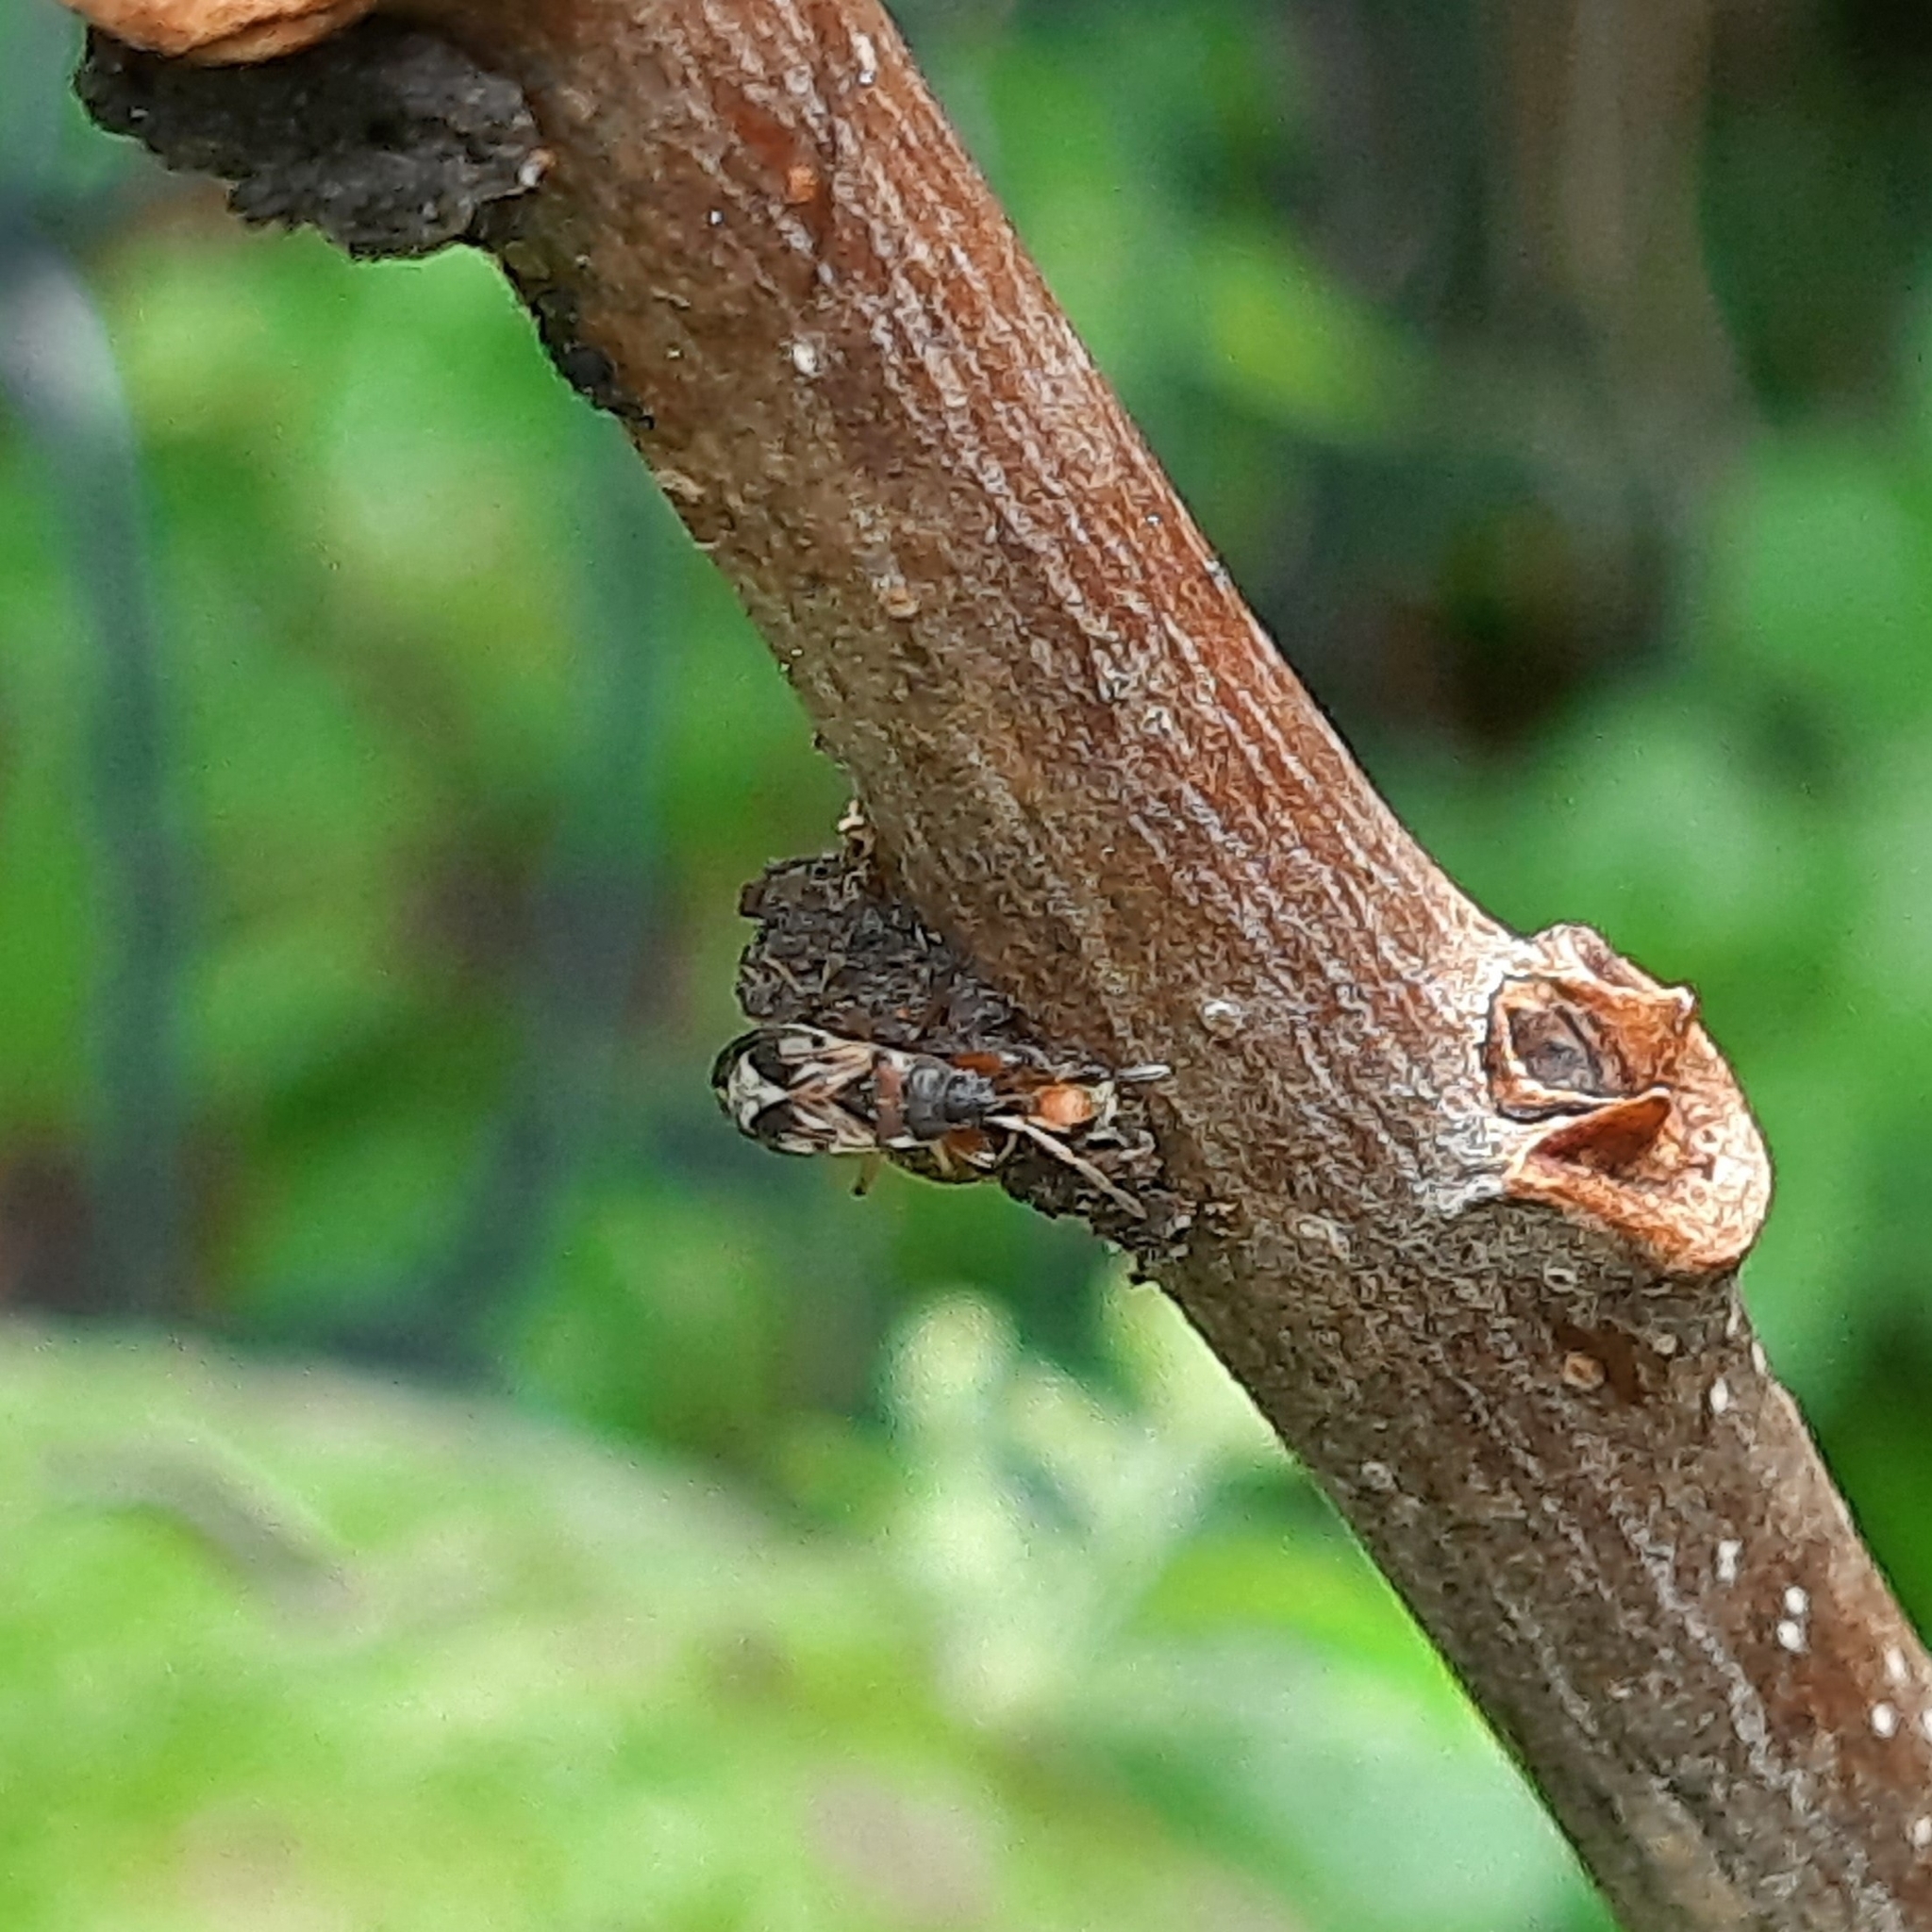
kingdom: Animalia
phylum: Arthropoda
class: Insecta
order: Hemiptera
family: Rhyparochromidae
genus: Scolopostethus
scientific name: Scolopostethus
